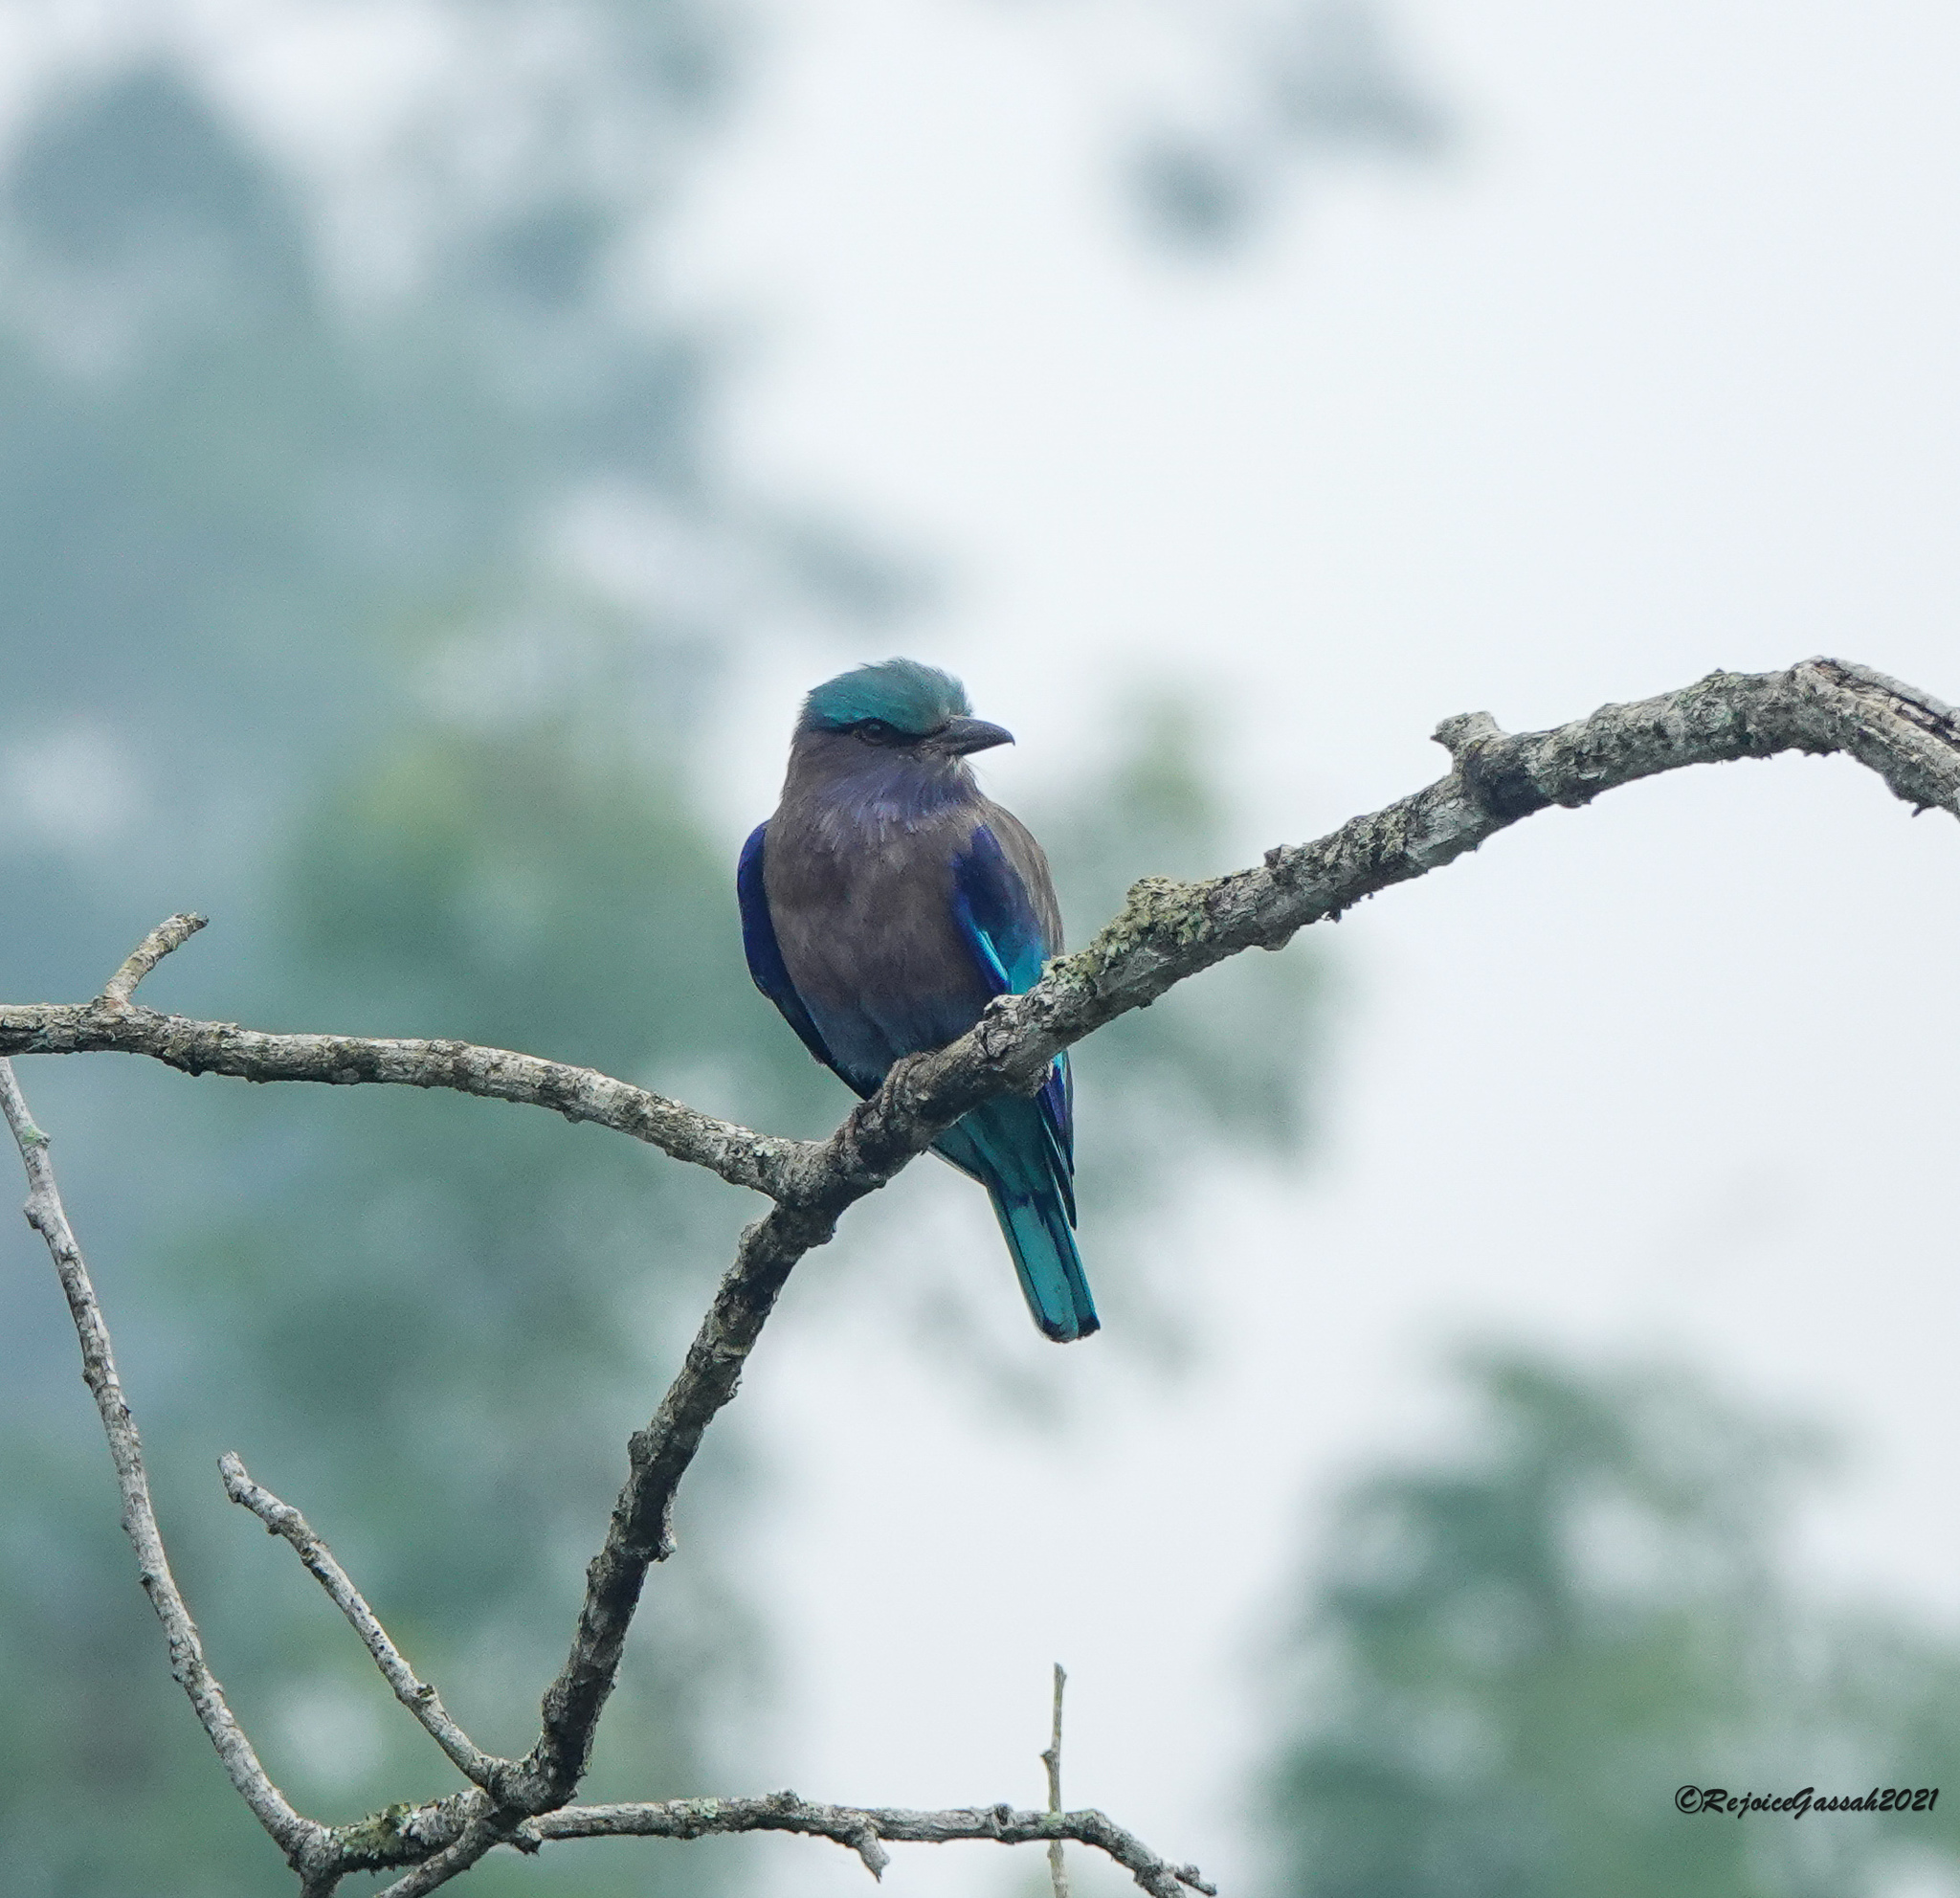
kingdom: Animalia
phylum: Chordata
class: Aves
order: Coraciiformes
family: Coraciidae
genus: Coracias
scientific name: Coracias affinis
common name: Indochinese roller
